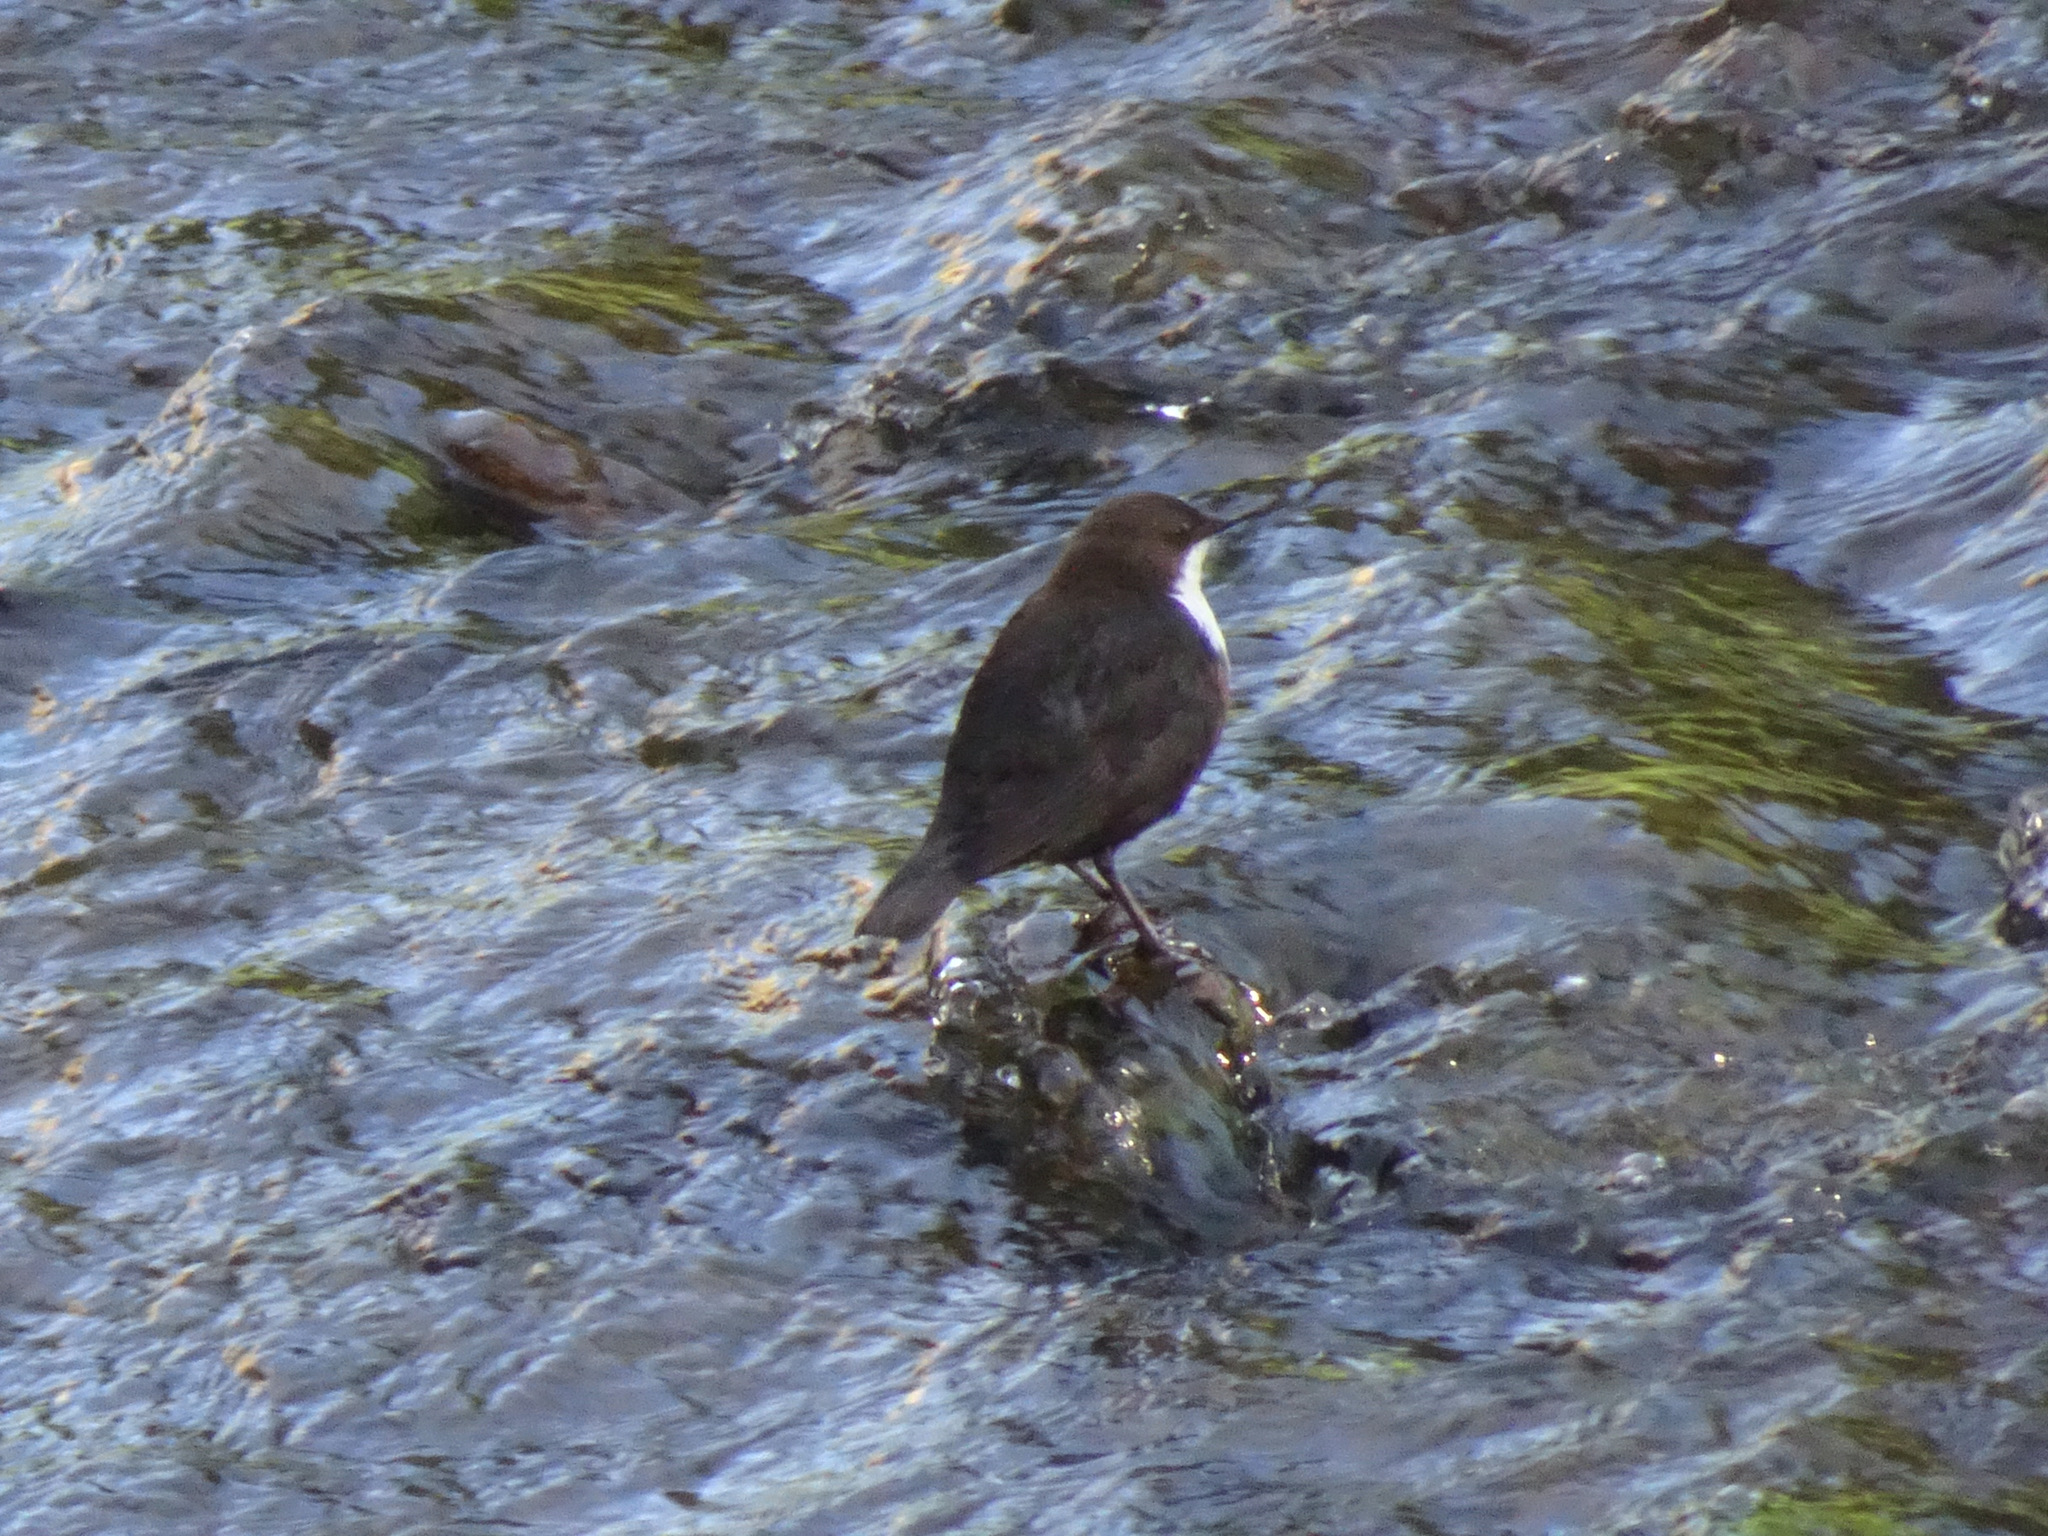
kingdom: Animalia
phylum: Chordata
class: Aves
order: Passeriformes
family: Cinclidae
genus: Cinclus
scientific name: Cinclus cinclus
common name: White-throated dipper
